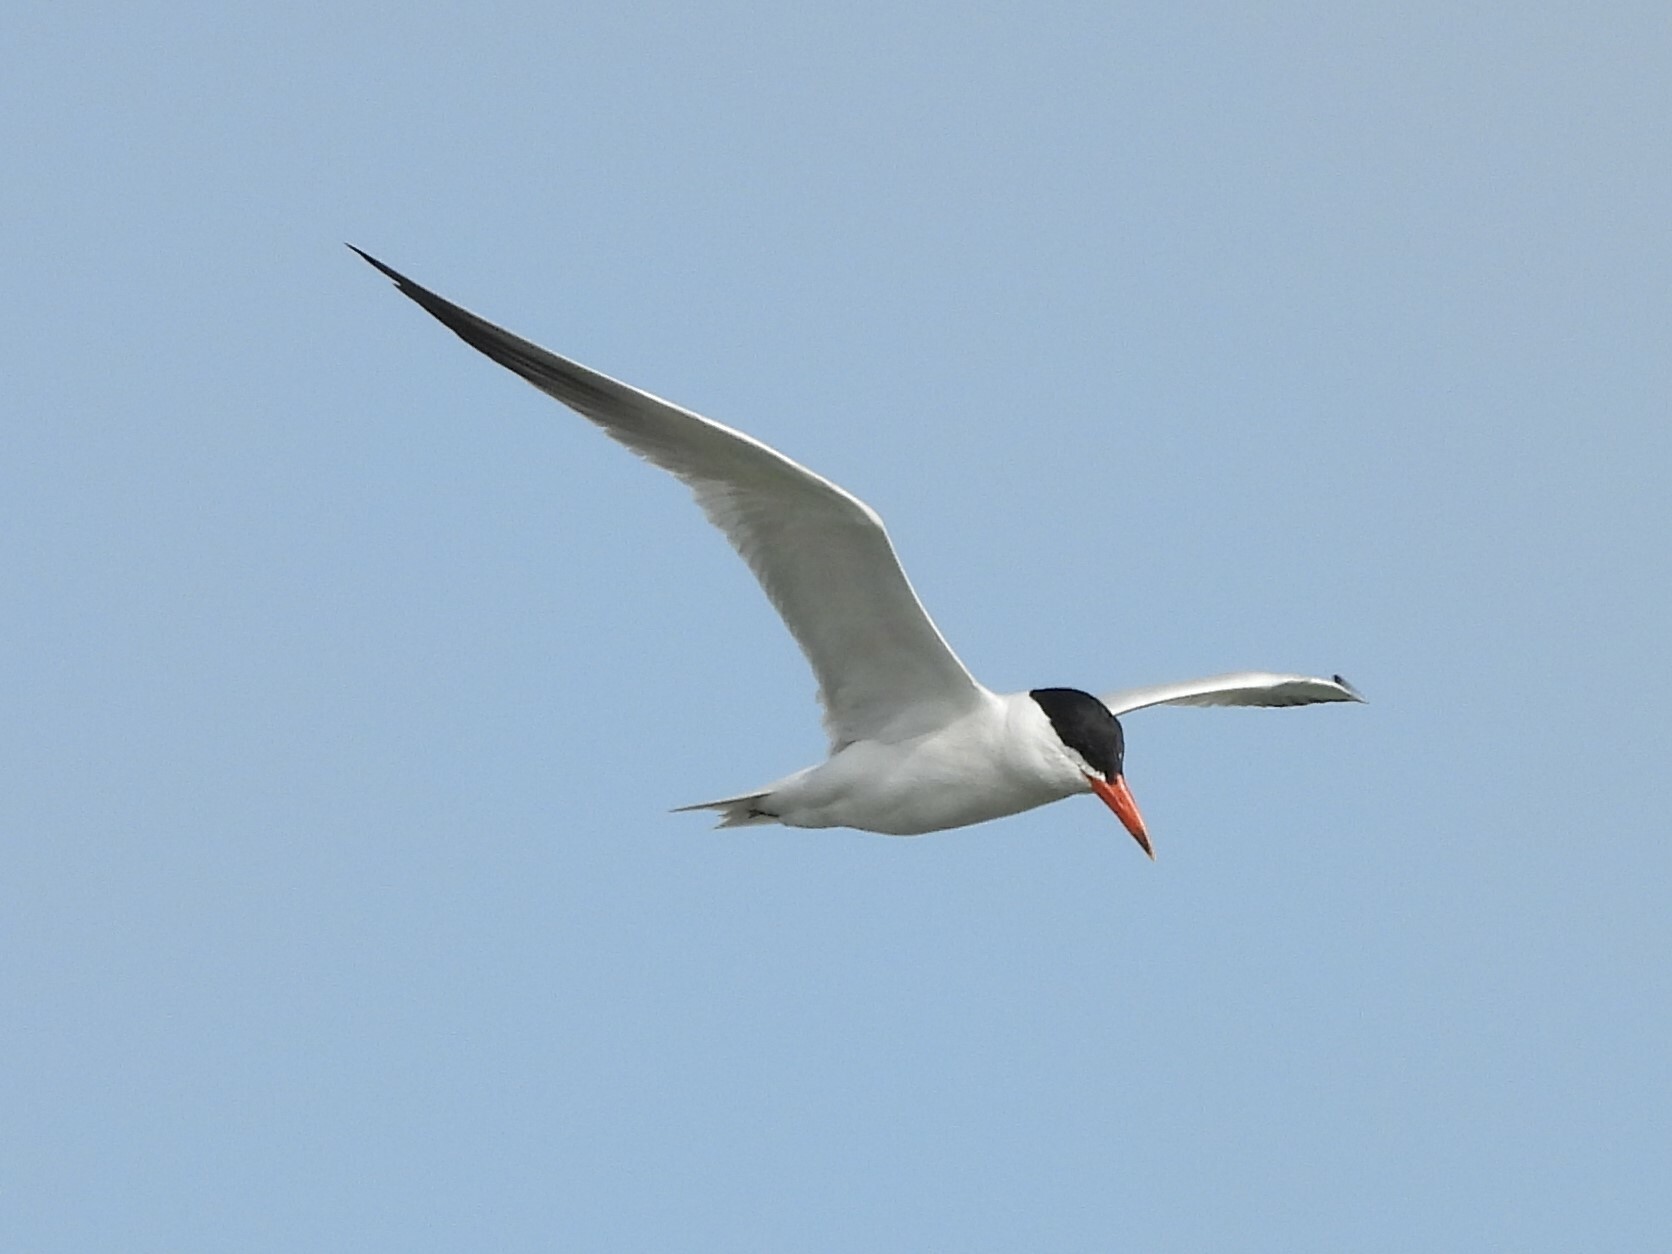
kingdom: Animalia
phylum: Chordata
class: Aves
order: Charadriiformes
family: Laridae
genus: Hydroprogne
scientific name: Hydroprogne caspia
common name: Caspian tern
